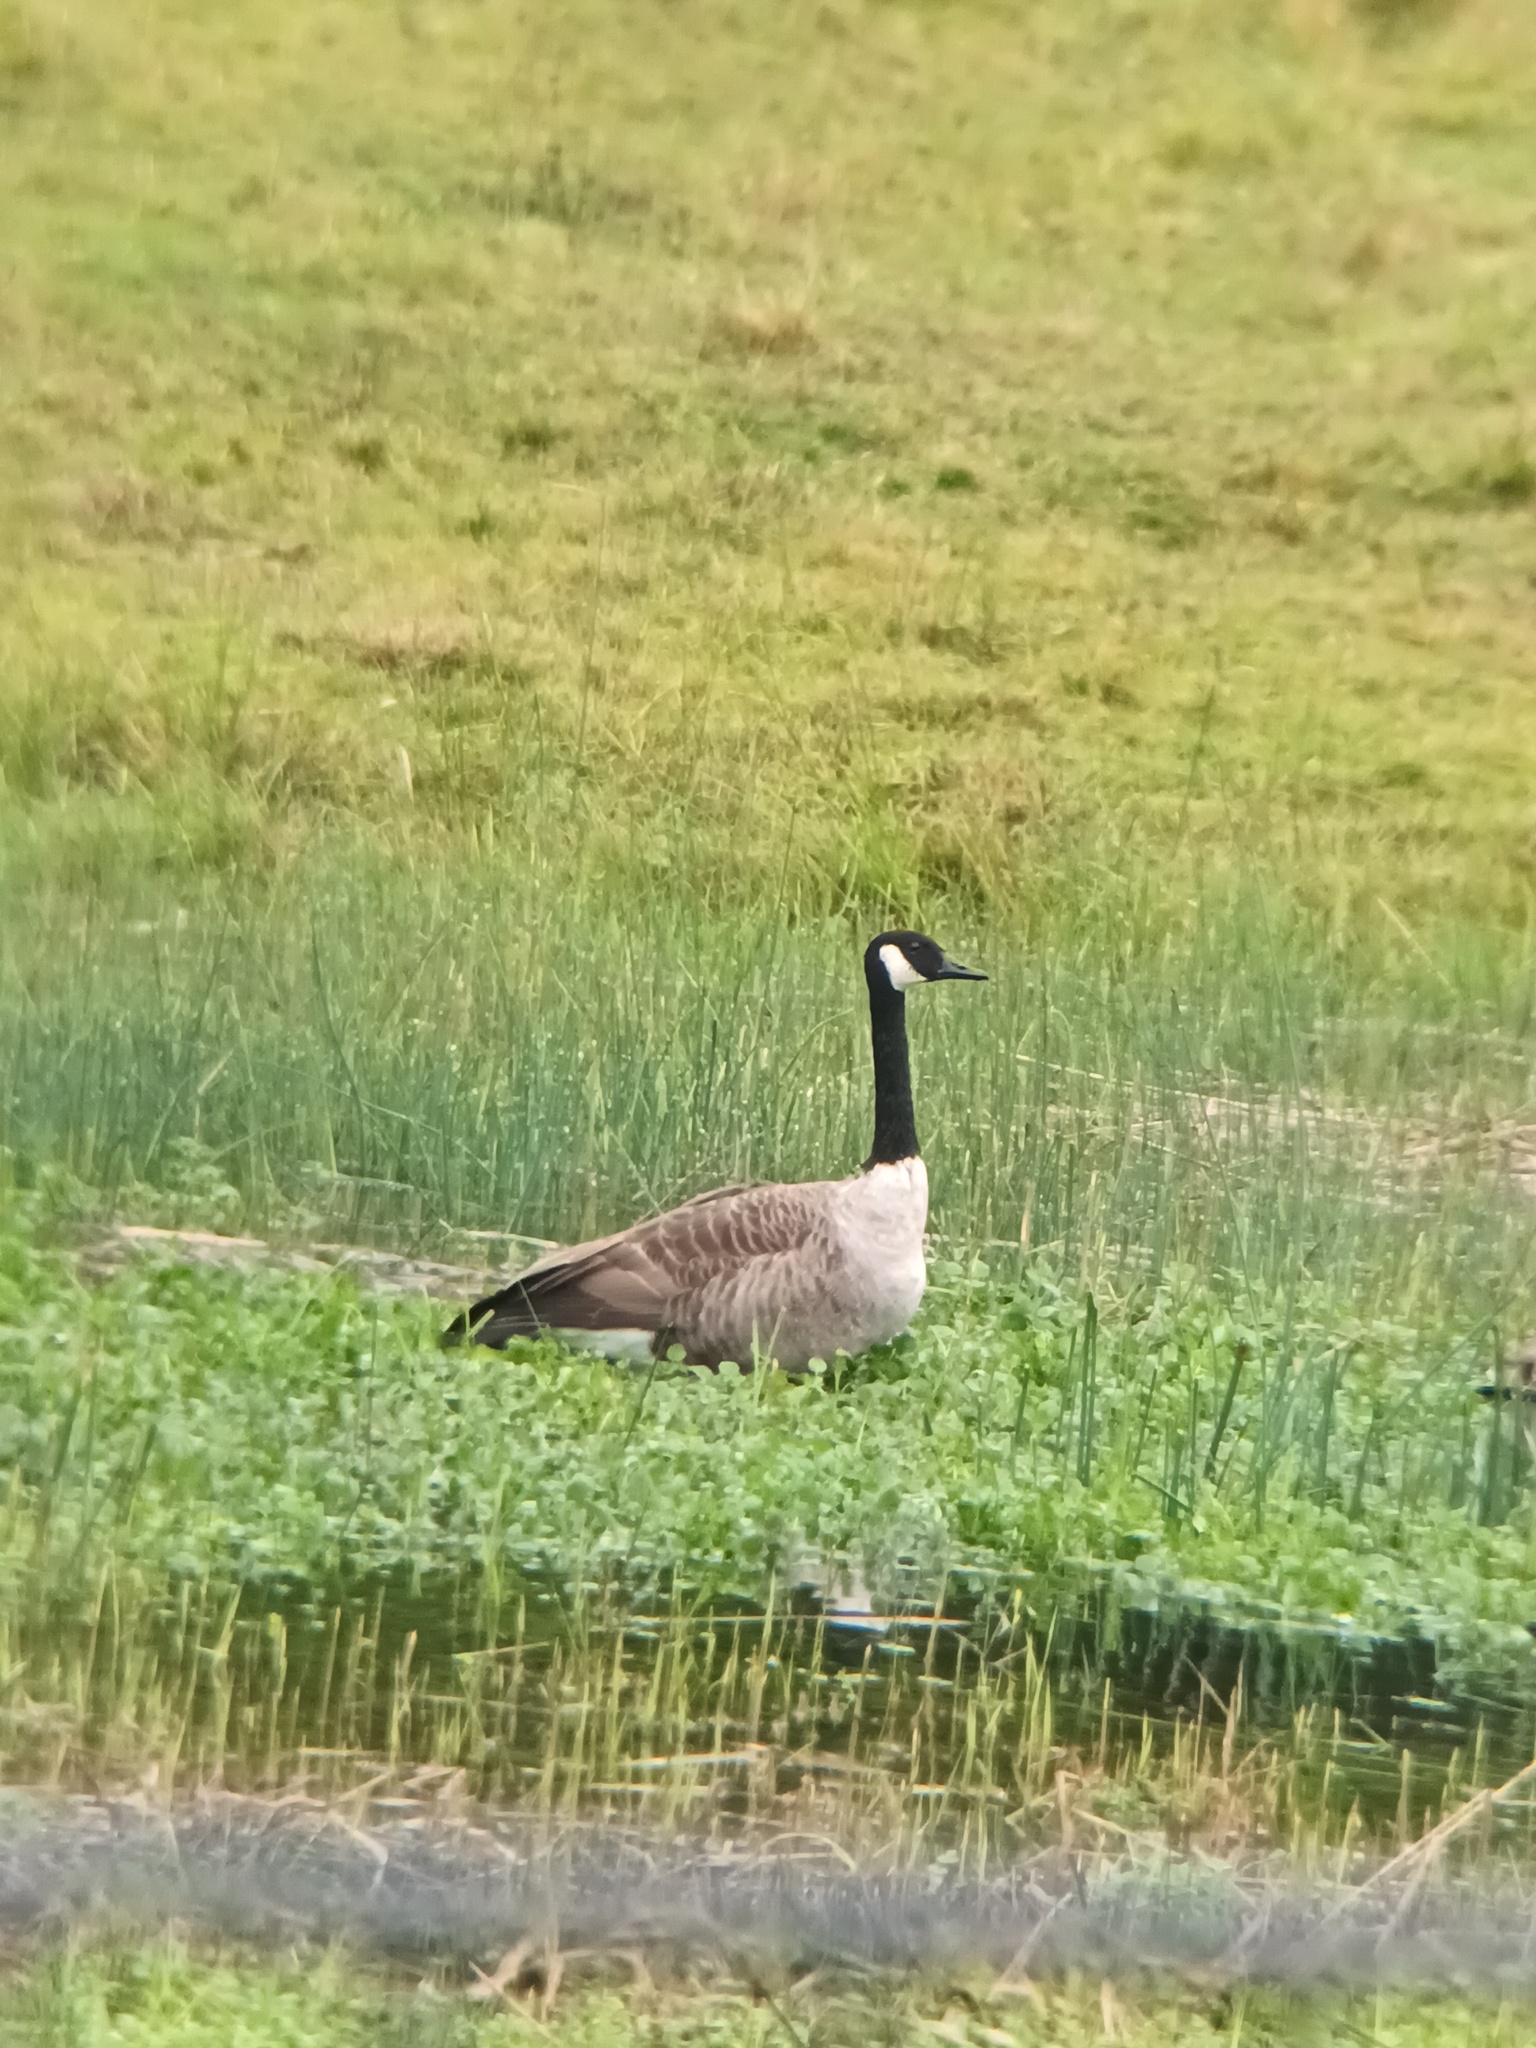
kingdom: Animalia
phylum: Chordata
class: Aves
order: Anseriformes
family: Anatidae
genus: Branta
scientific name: Branta canadensis
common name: Canada goose
